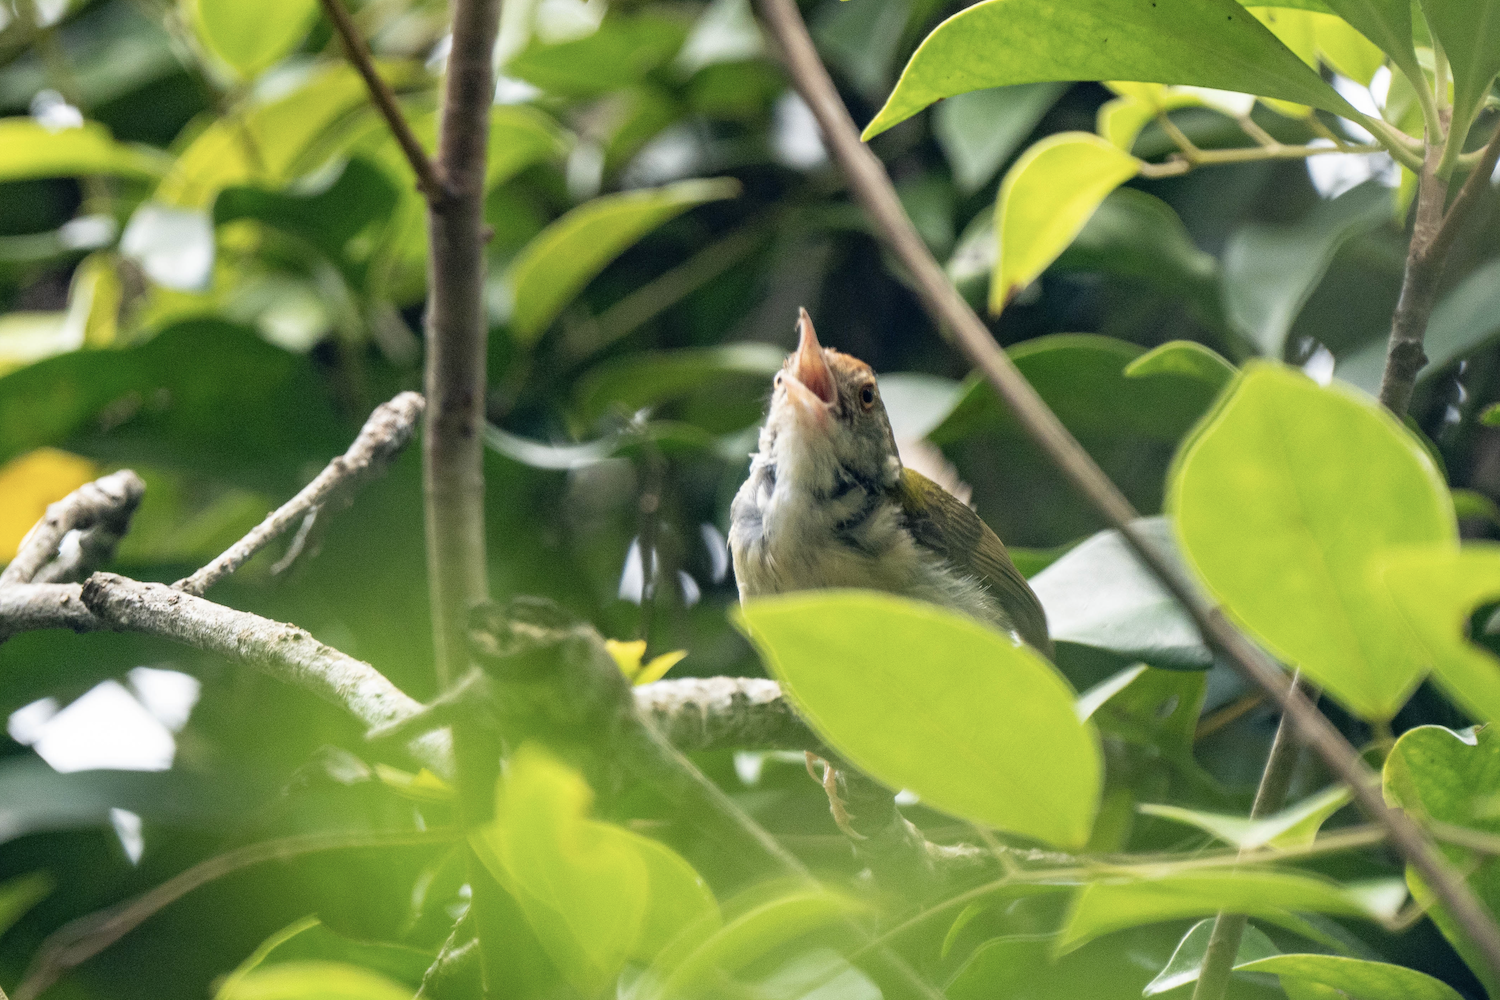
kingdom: Animalia
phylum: Chordata
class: Aves
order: Passeriformes
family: Cisticolidae
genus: Orthotomus
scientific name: Orthotomus sutorius
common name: Common tailorbird
